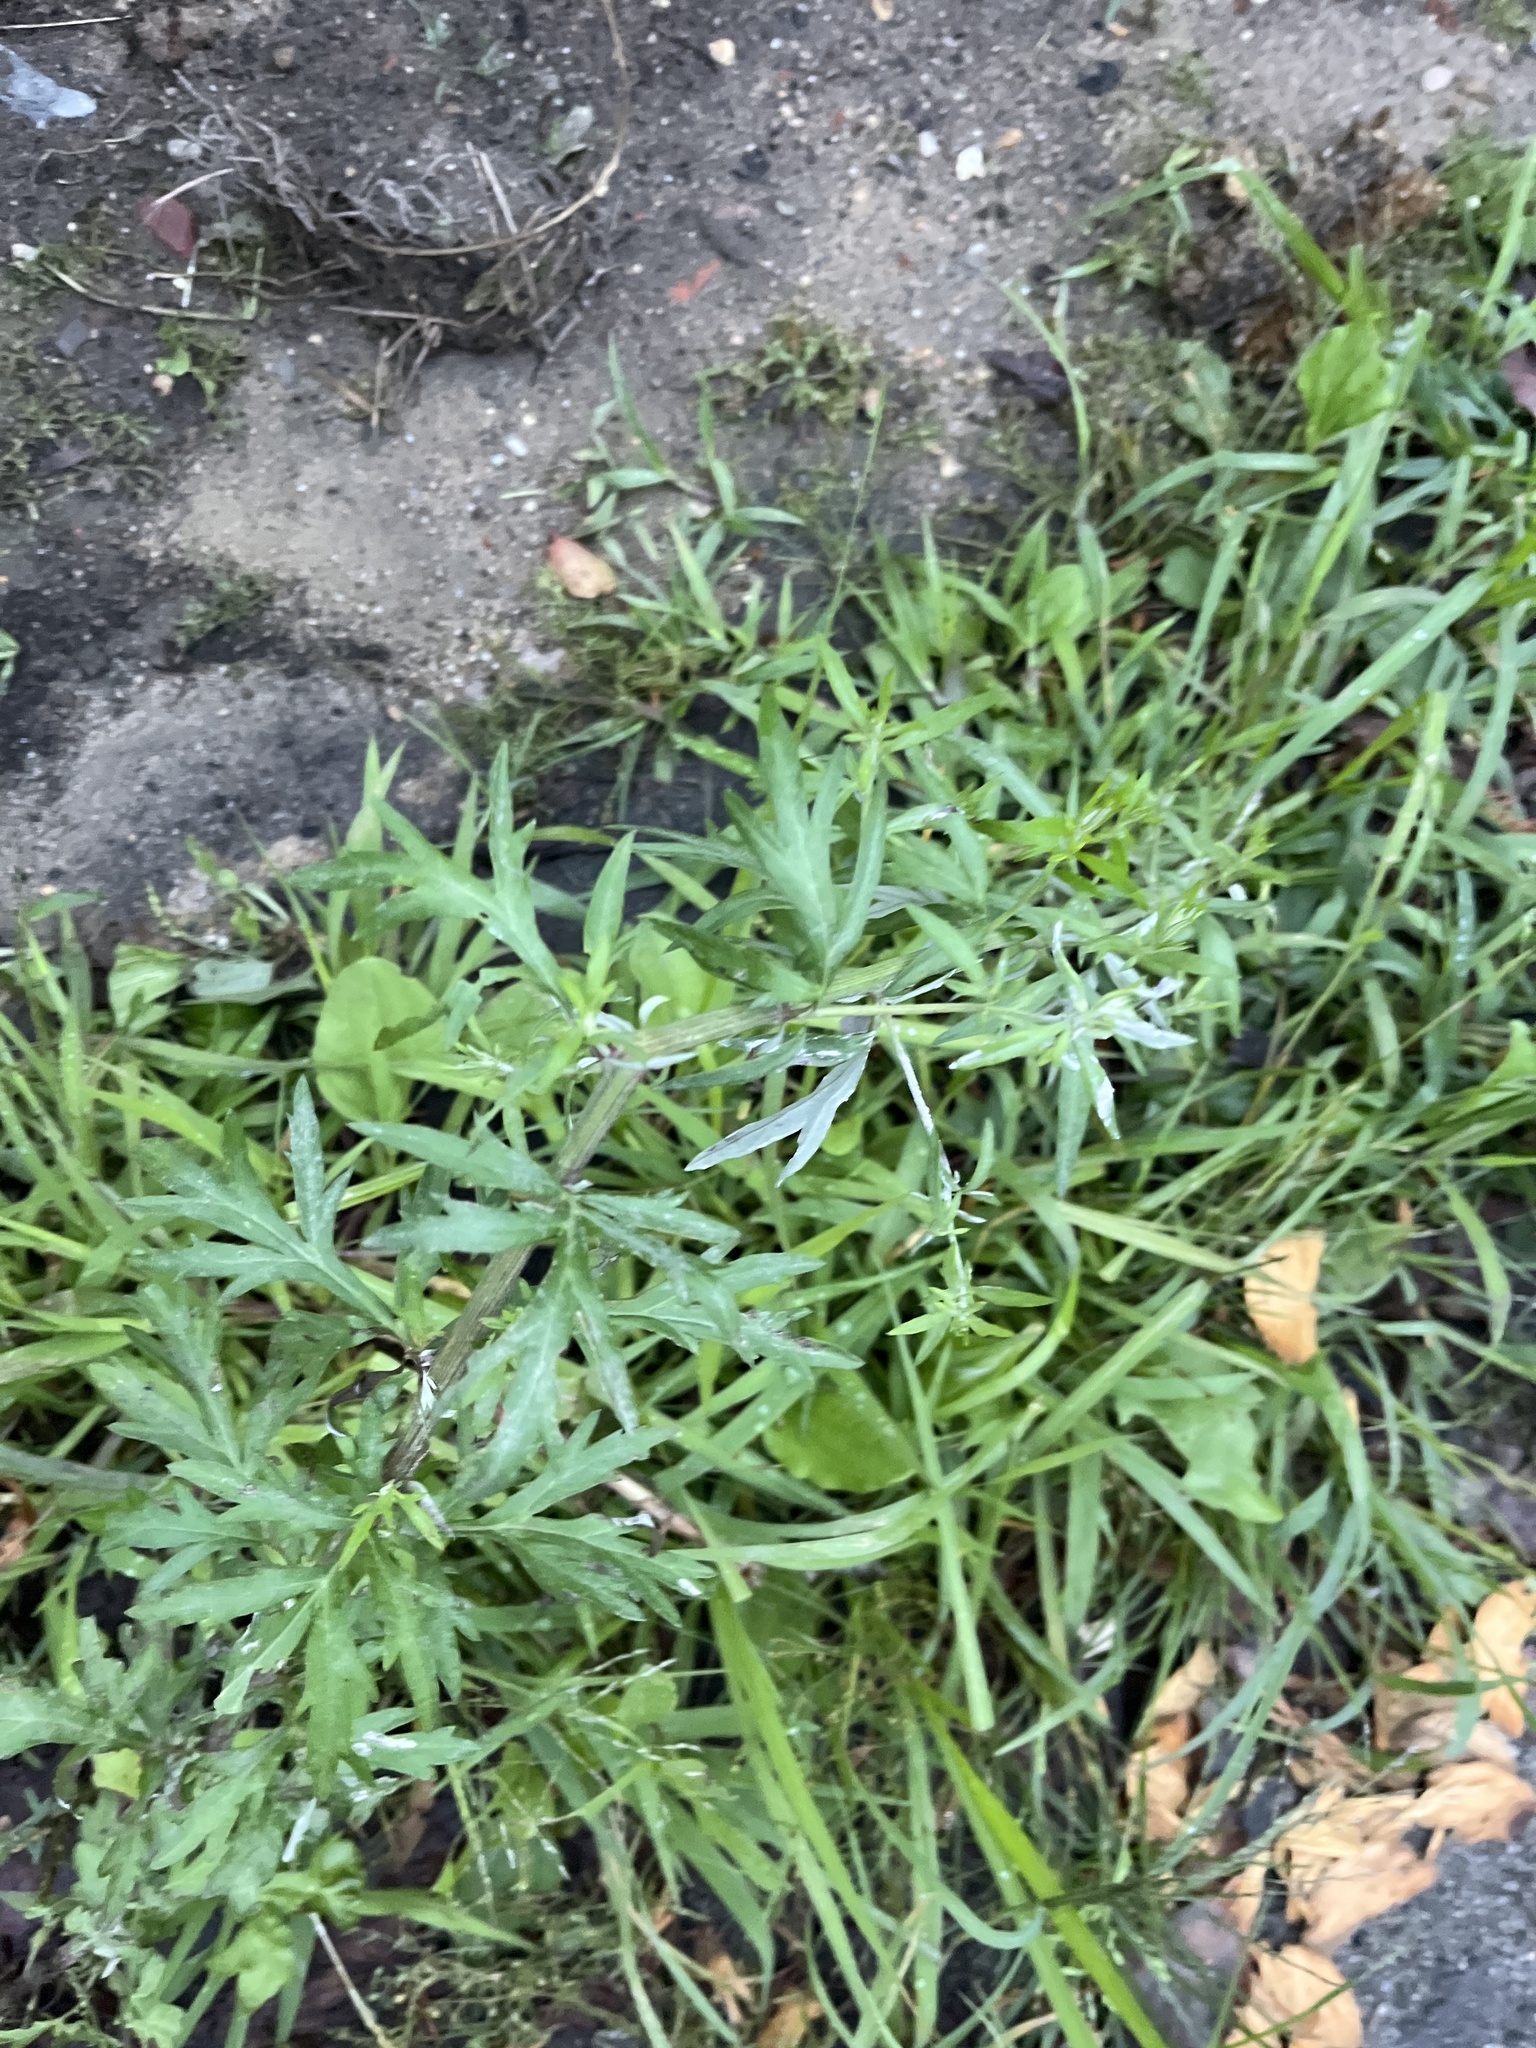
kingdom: Plantae
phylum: Tracheophyta
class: Magnoliopsida
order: Asterales
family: Asteraceae
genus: Artemisia
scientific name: Artemisia vulgaris
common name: Mugwort
